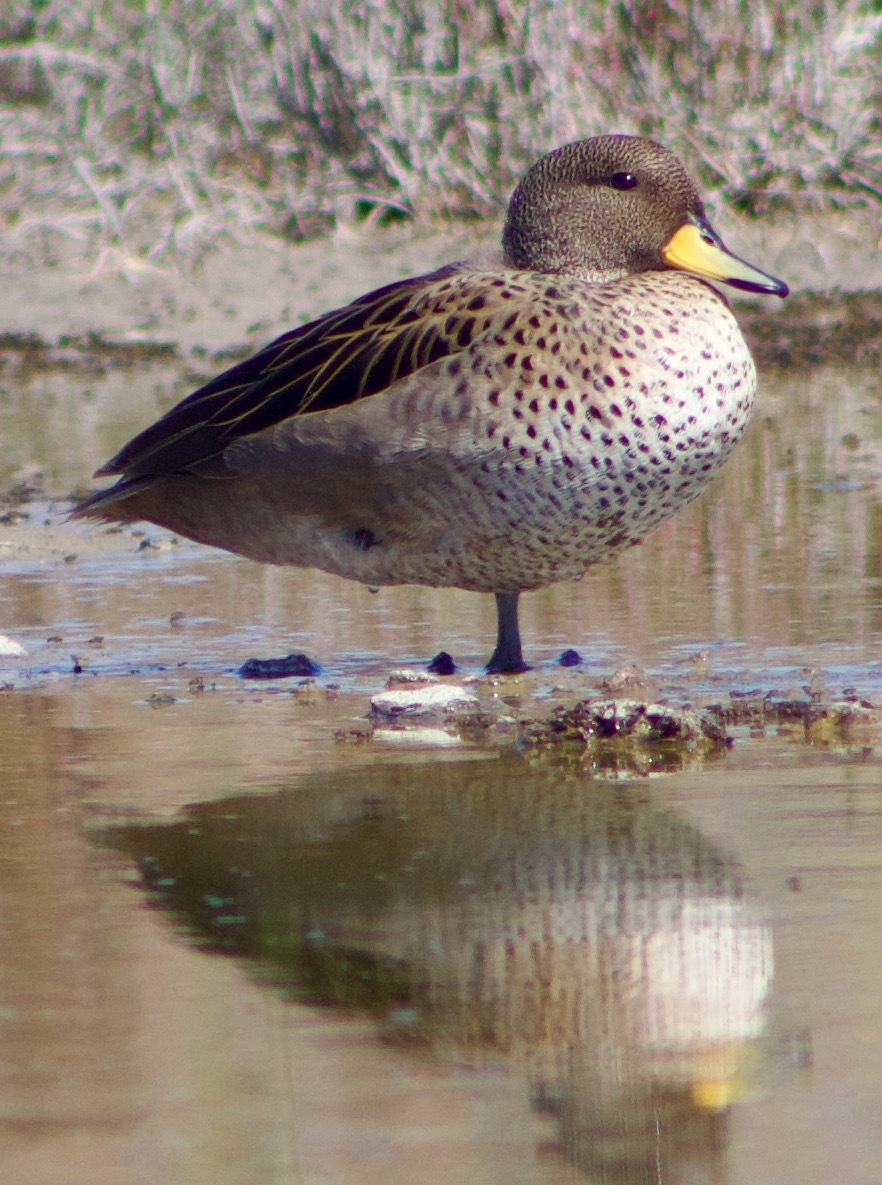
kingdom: Animalia
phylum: Chordata
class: Aves
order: Anseriformes
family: Anatidae
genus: Anas
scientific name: Anas flavirostris
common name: Yellow-billed teal
